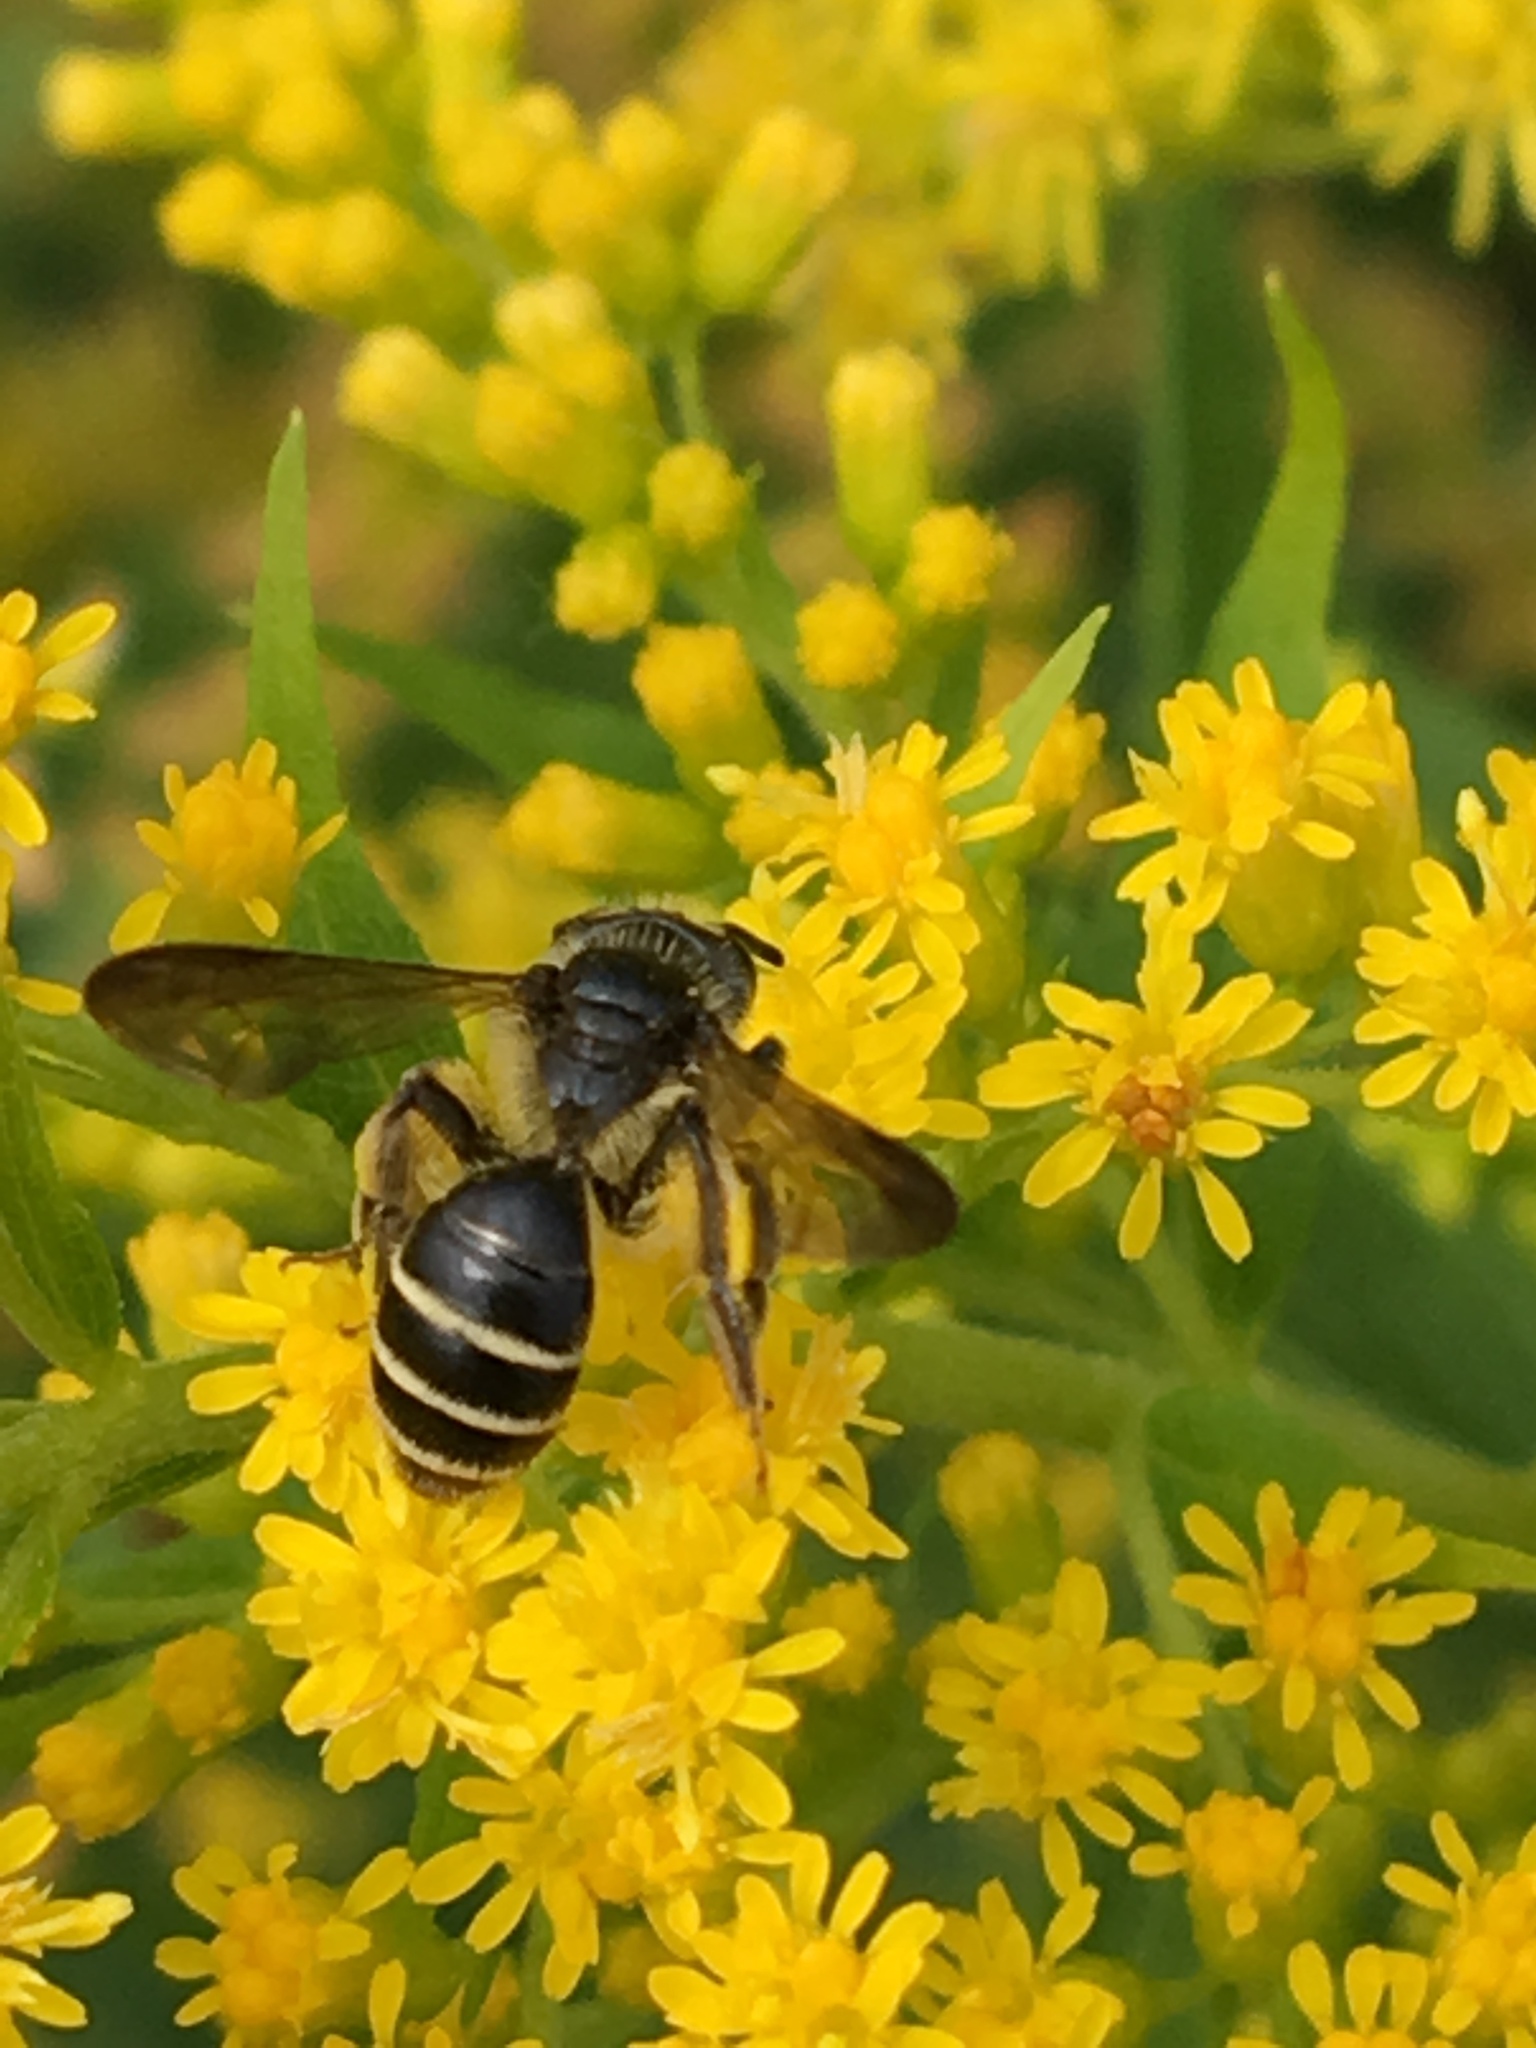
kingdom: Animalia
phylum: Arthropoda
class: Insecta
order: Hymenoptera
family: Andrenidae
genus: Andrena
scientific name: Andrena nubecula
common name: Cloudy-winged mining bee
